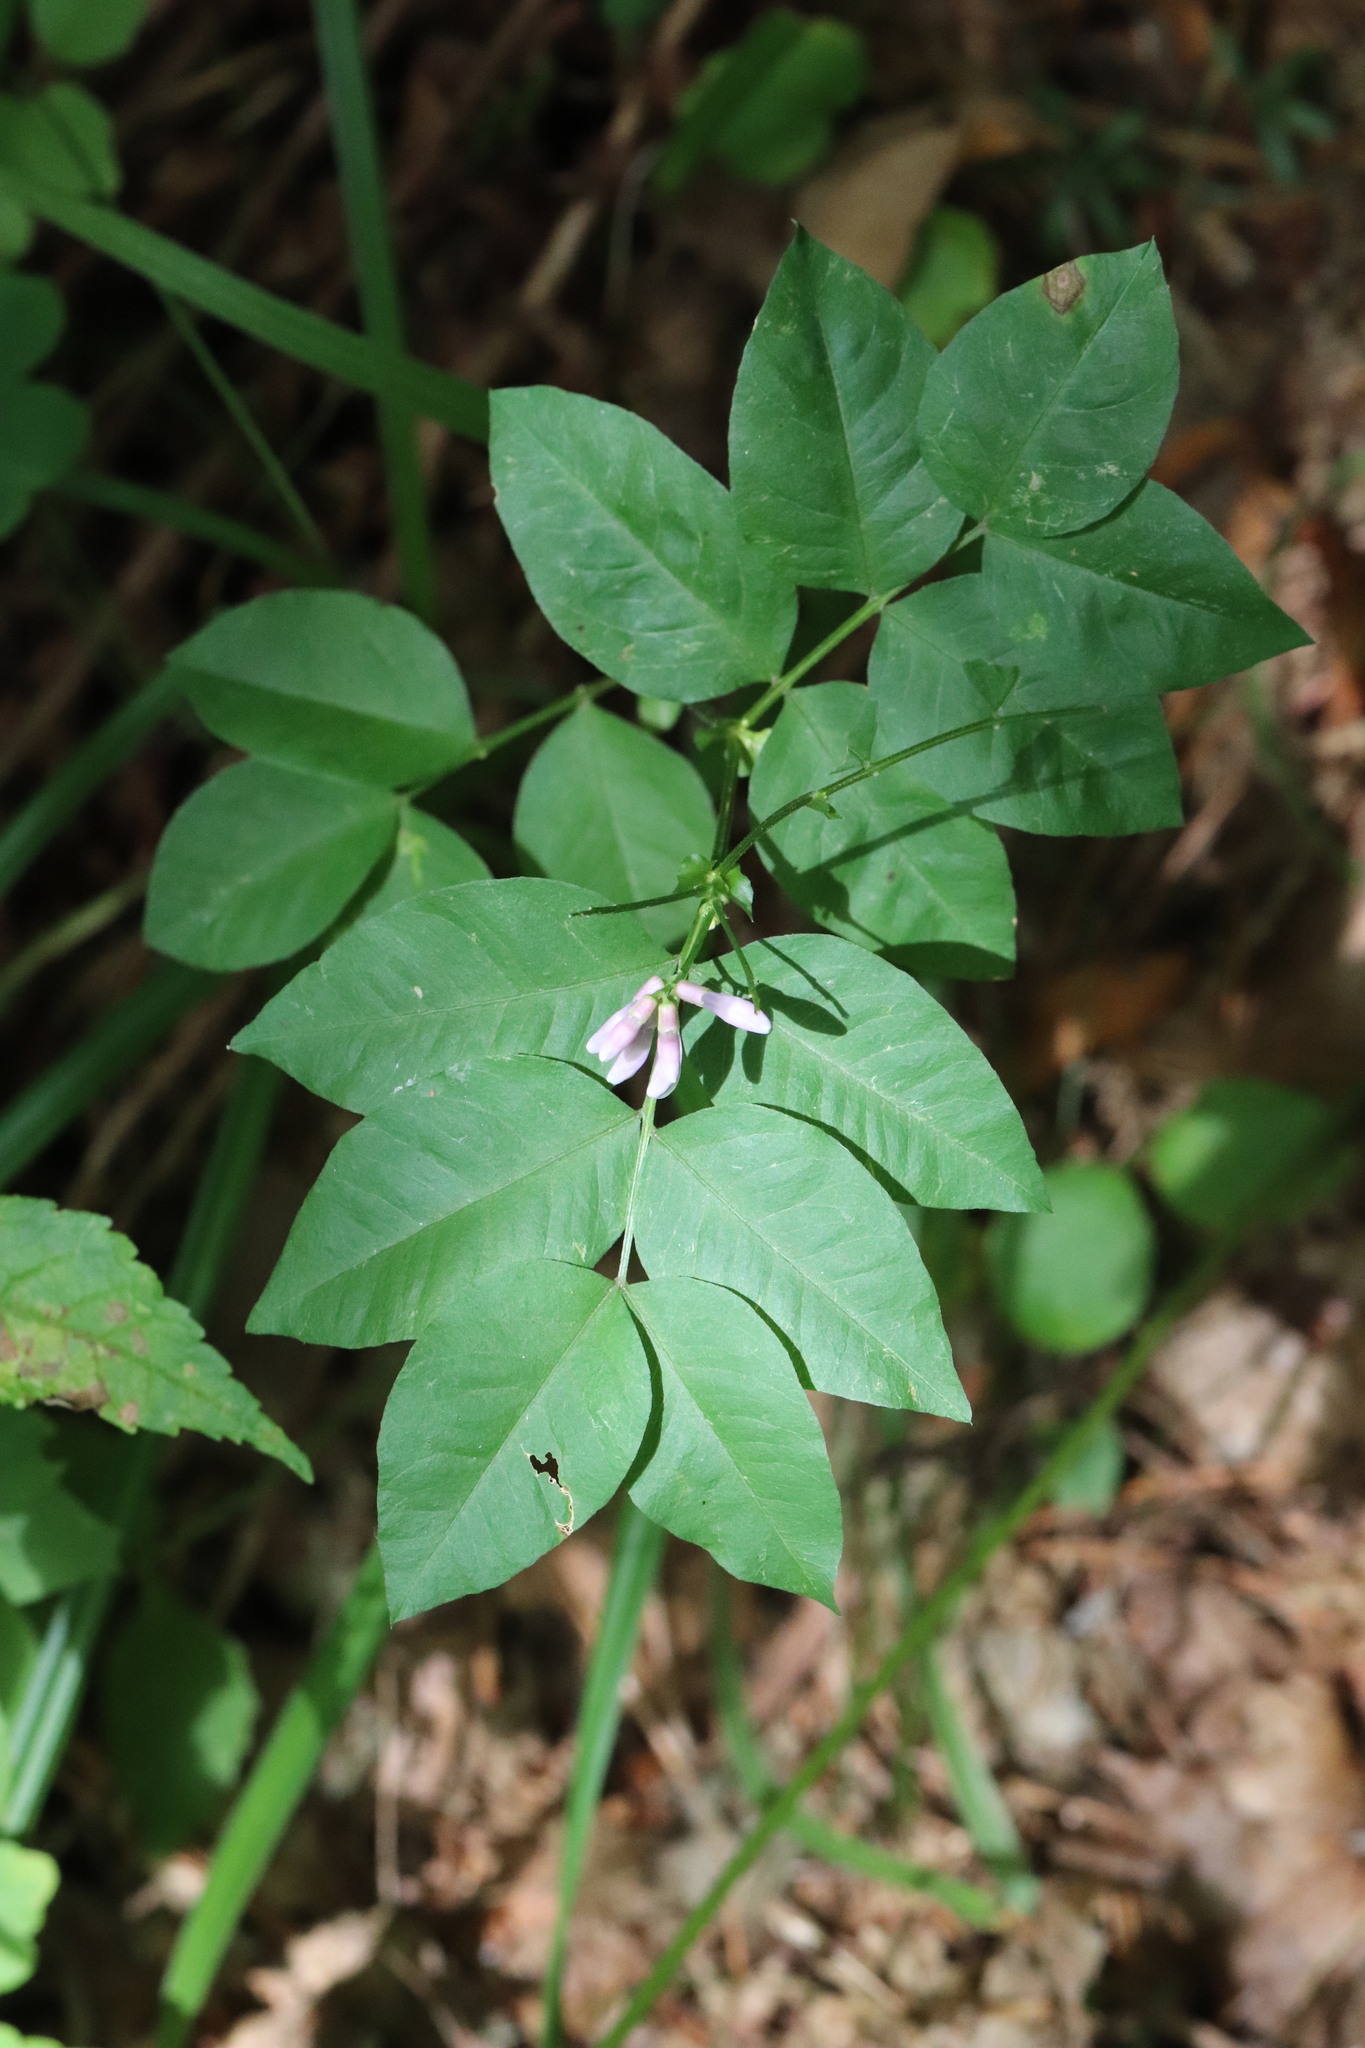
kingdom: Plantae
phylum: Tracheophyta
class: Magnoliopsida
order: Fabales
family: Fabaceae
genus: Vicia
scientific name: Vicia ramuliflora
